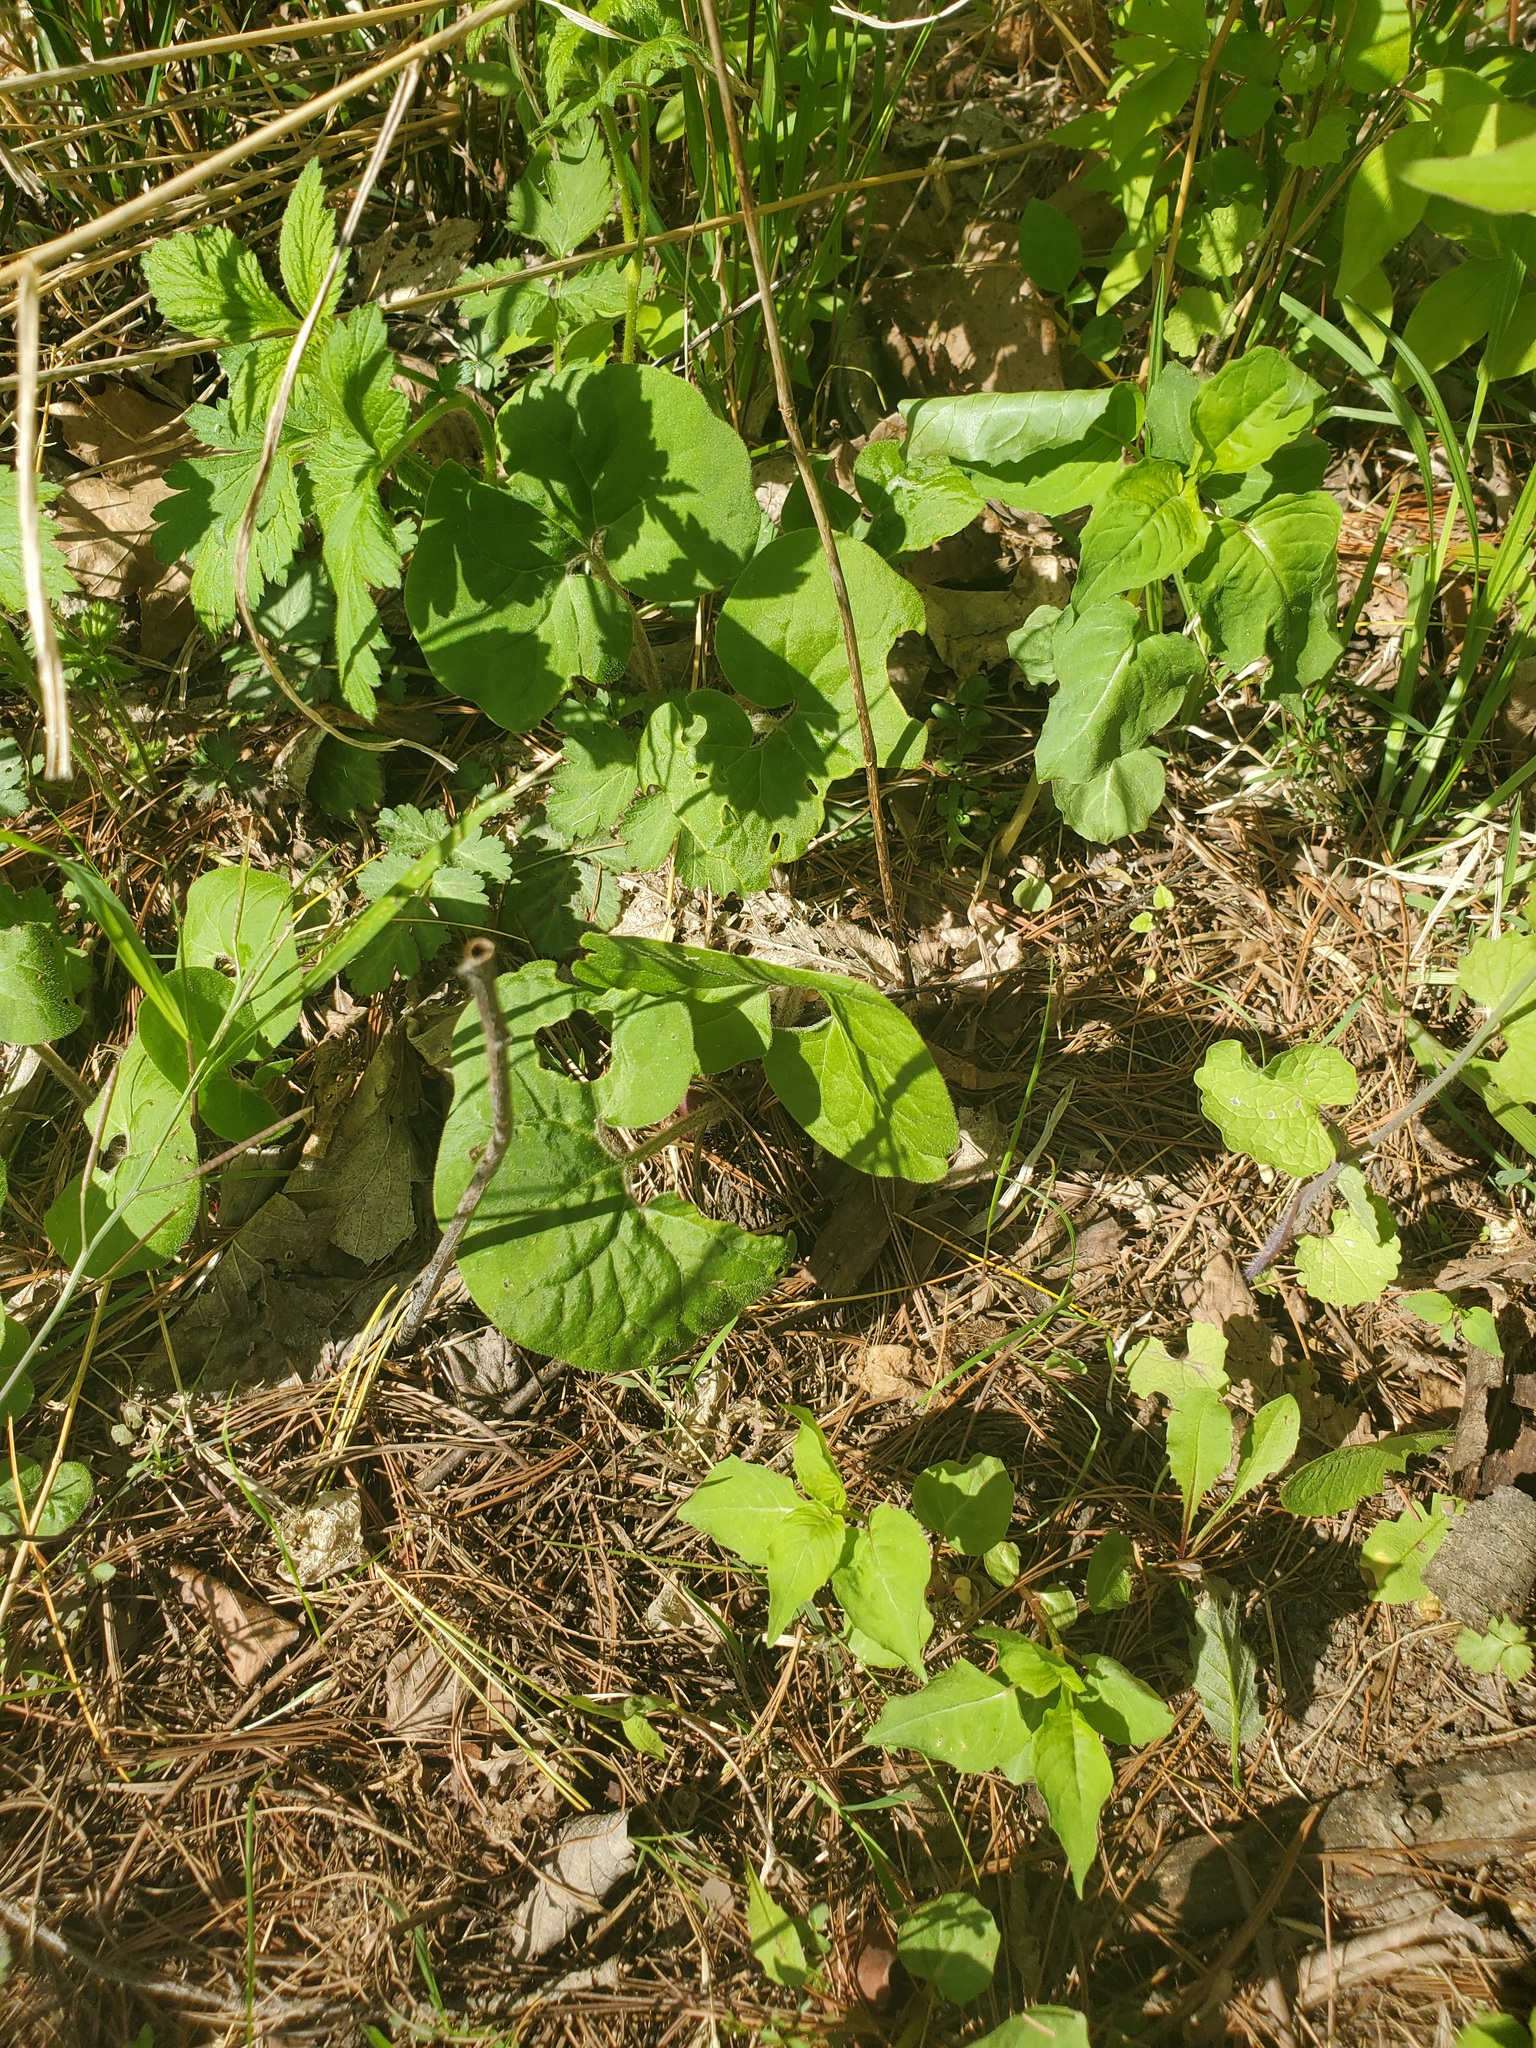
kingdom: Plantae
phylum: Tracheophyta
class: Magnoliopsida
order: Piperales
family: Aristolochiaceae
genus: Asarum
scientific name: Asarum canadense
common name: Wild ginger
